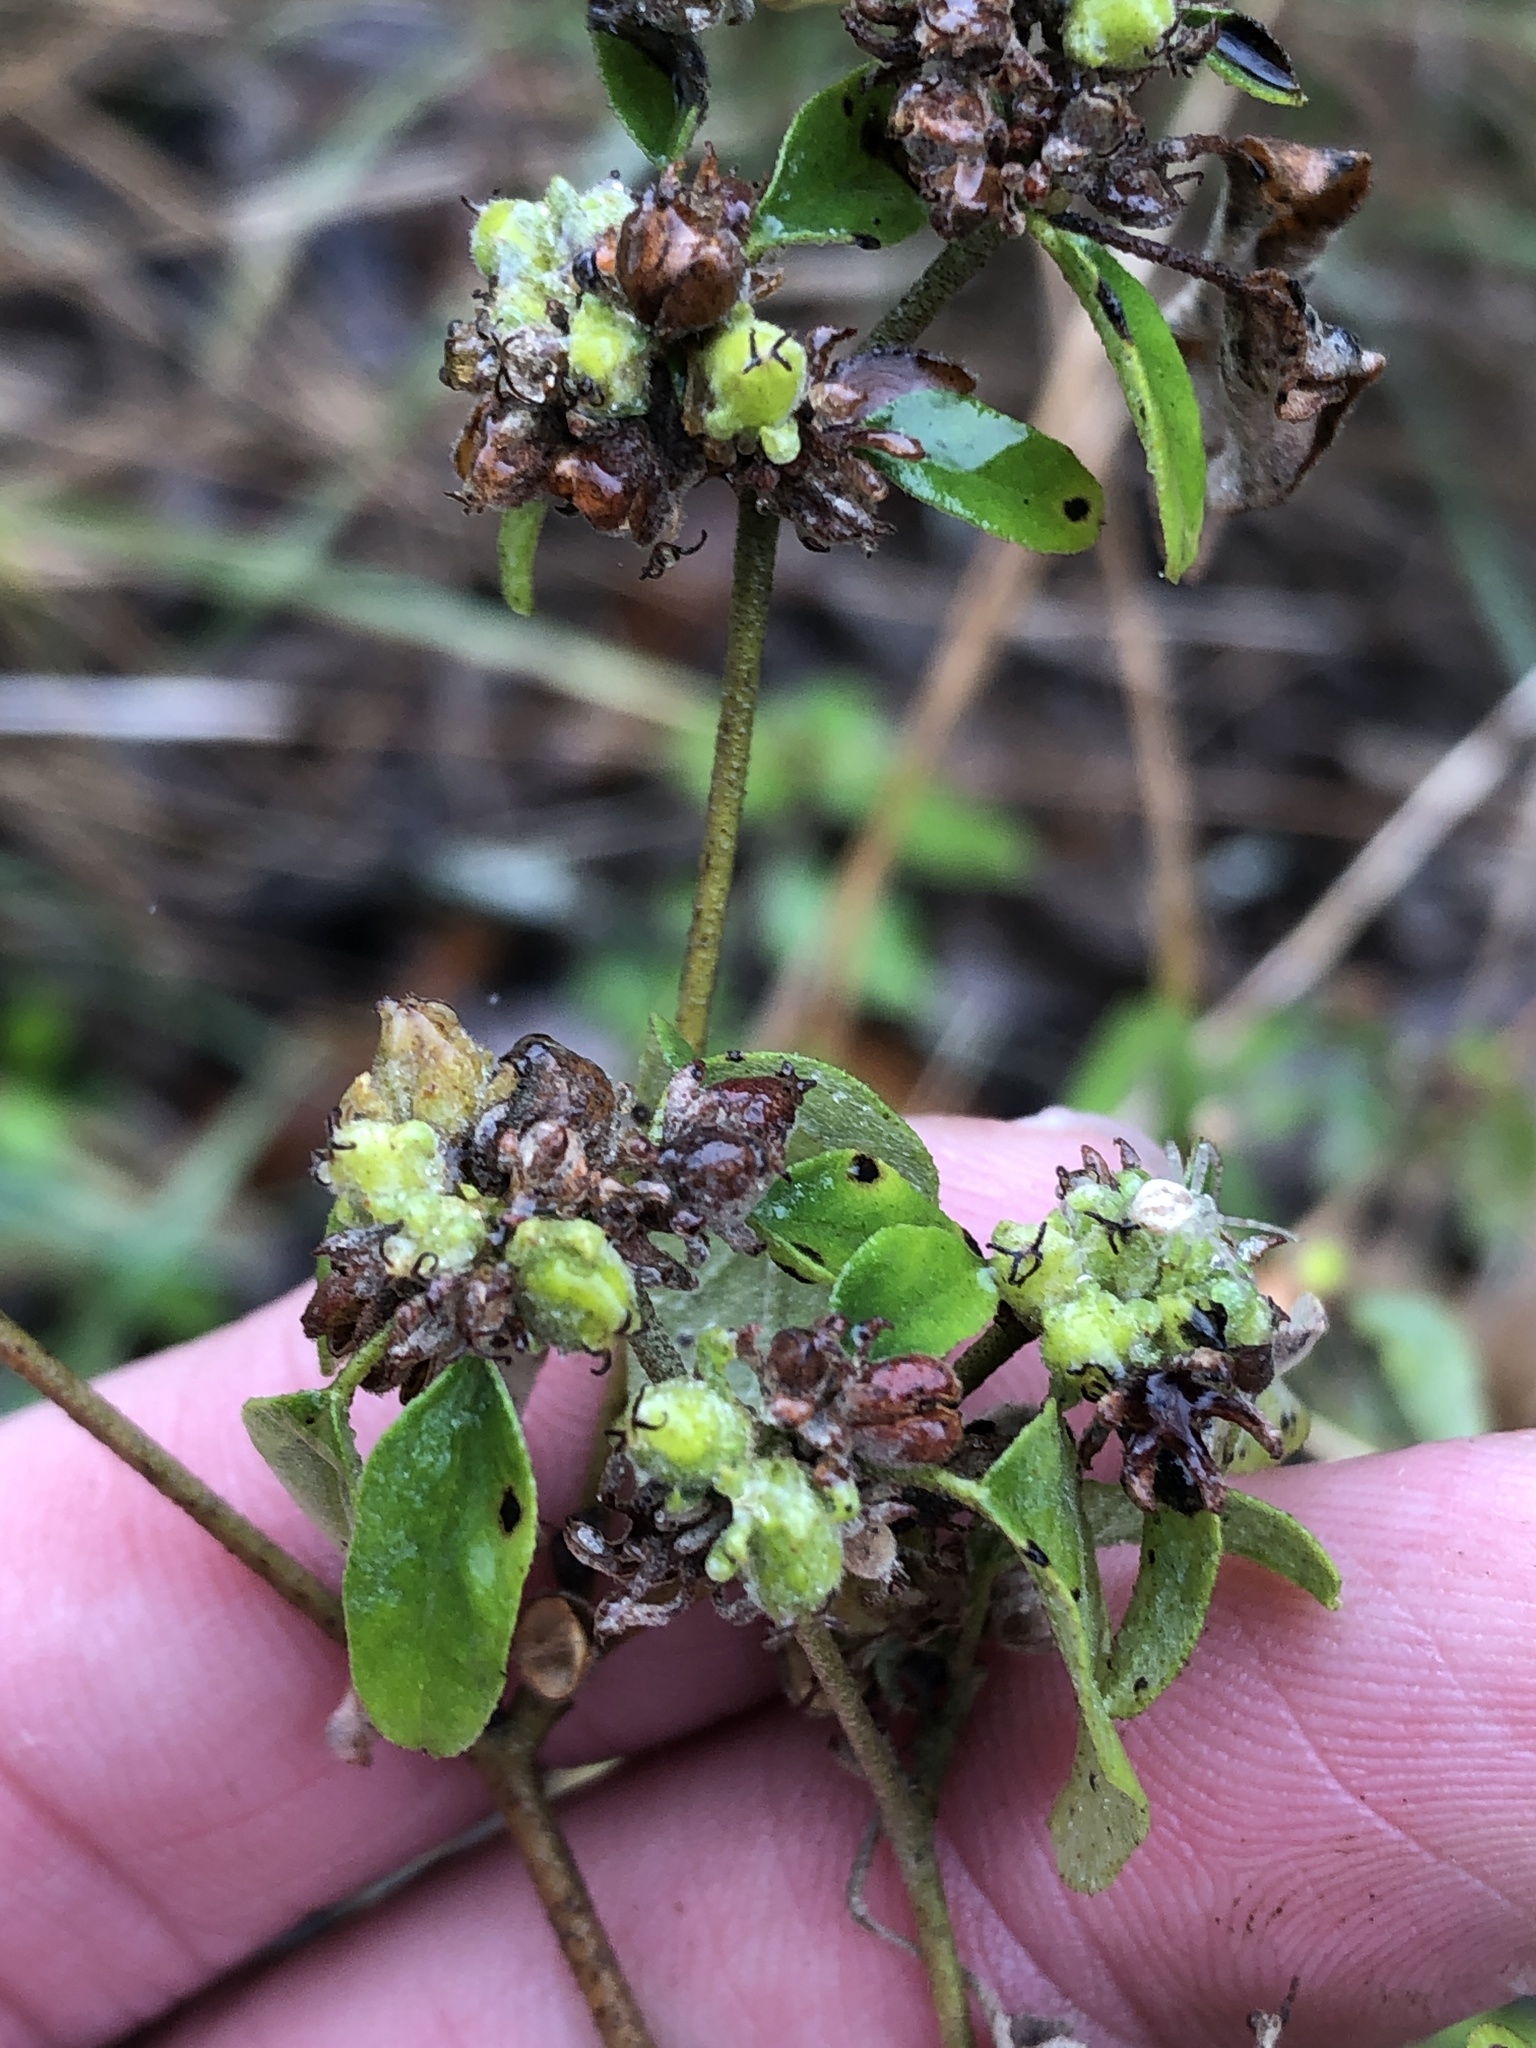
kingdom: Plantae
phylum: Tracheophyta
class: Magnoliopsida
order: Malpighiales
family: Euphorbiaceae
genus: Croton
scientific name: Croton monanthogynus
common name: One-seed croton
